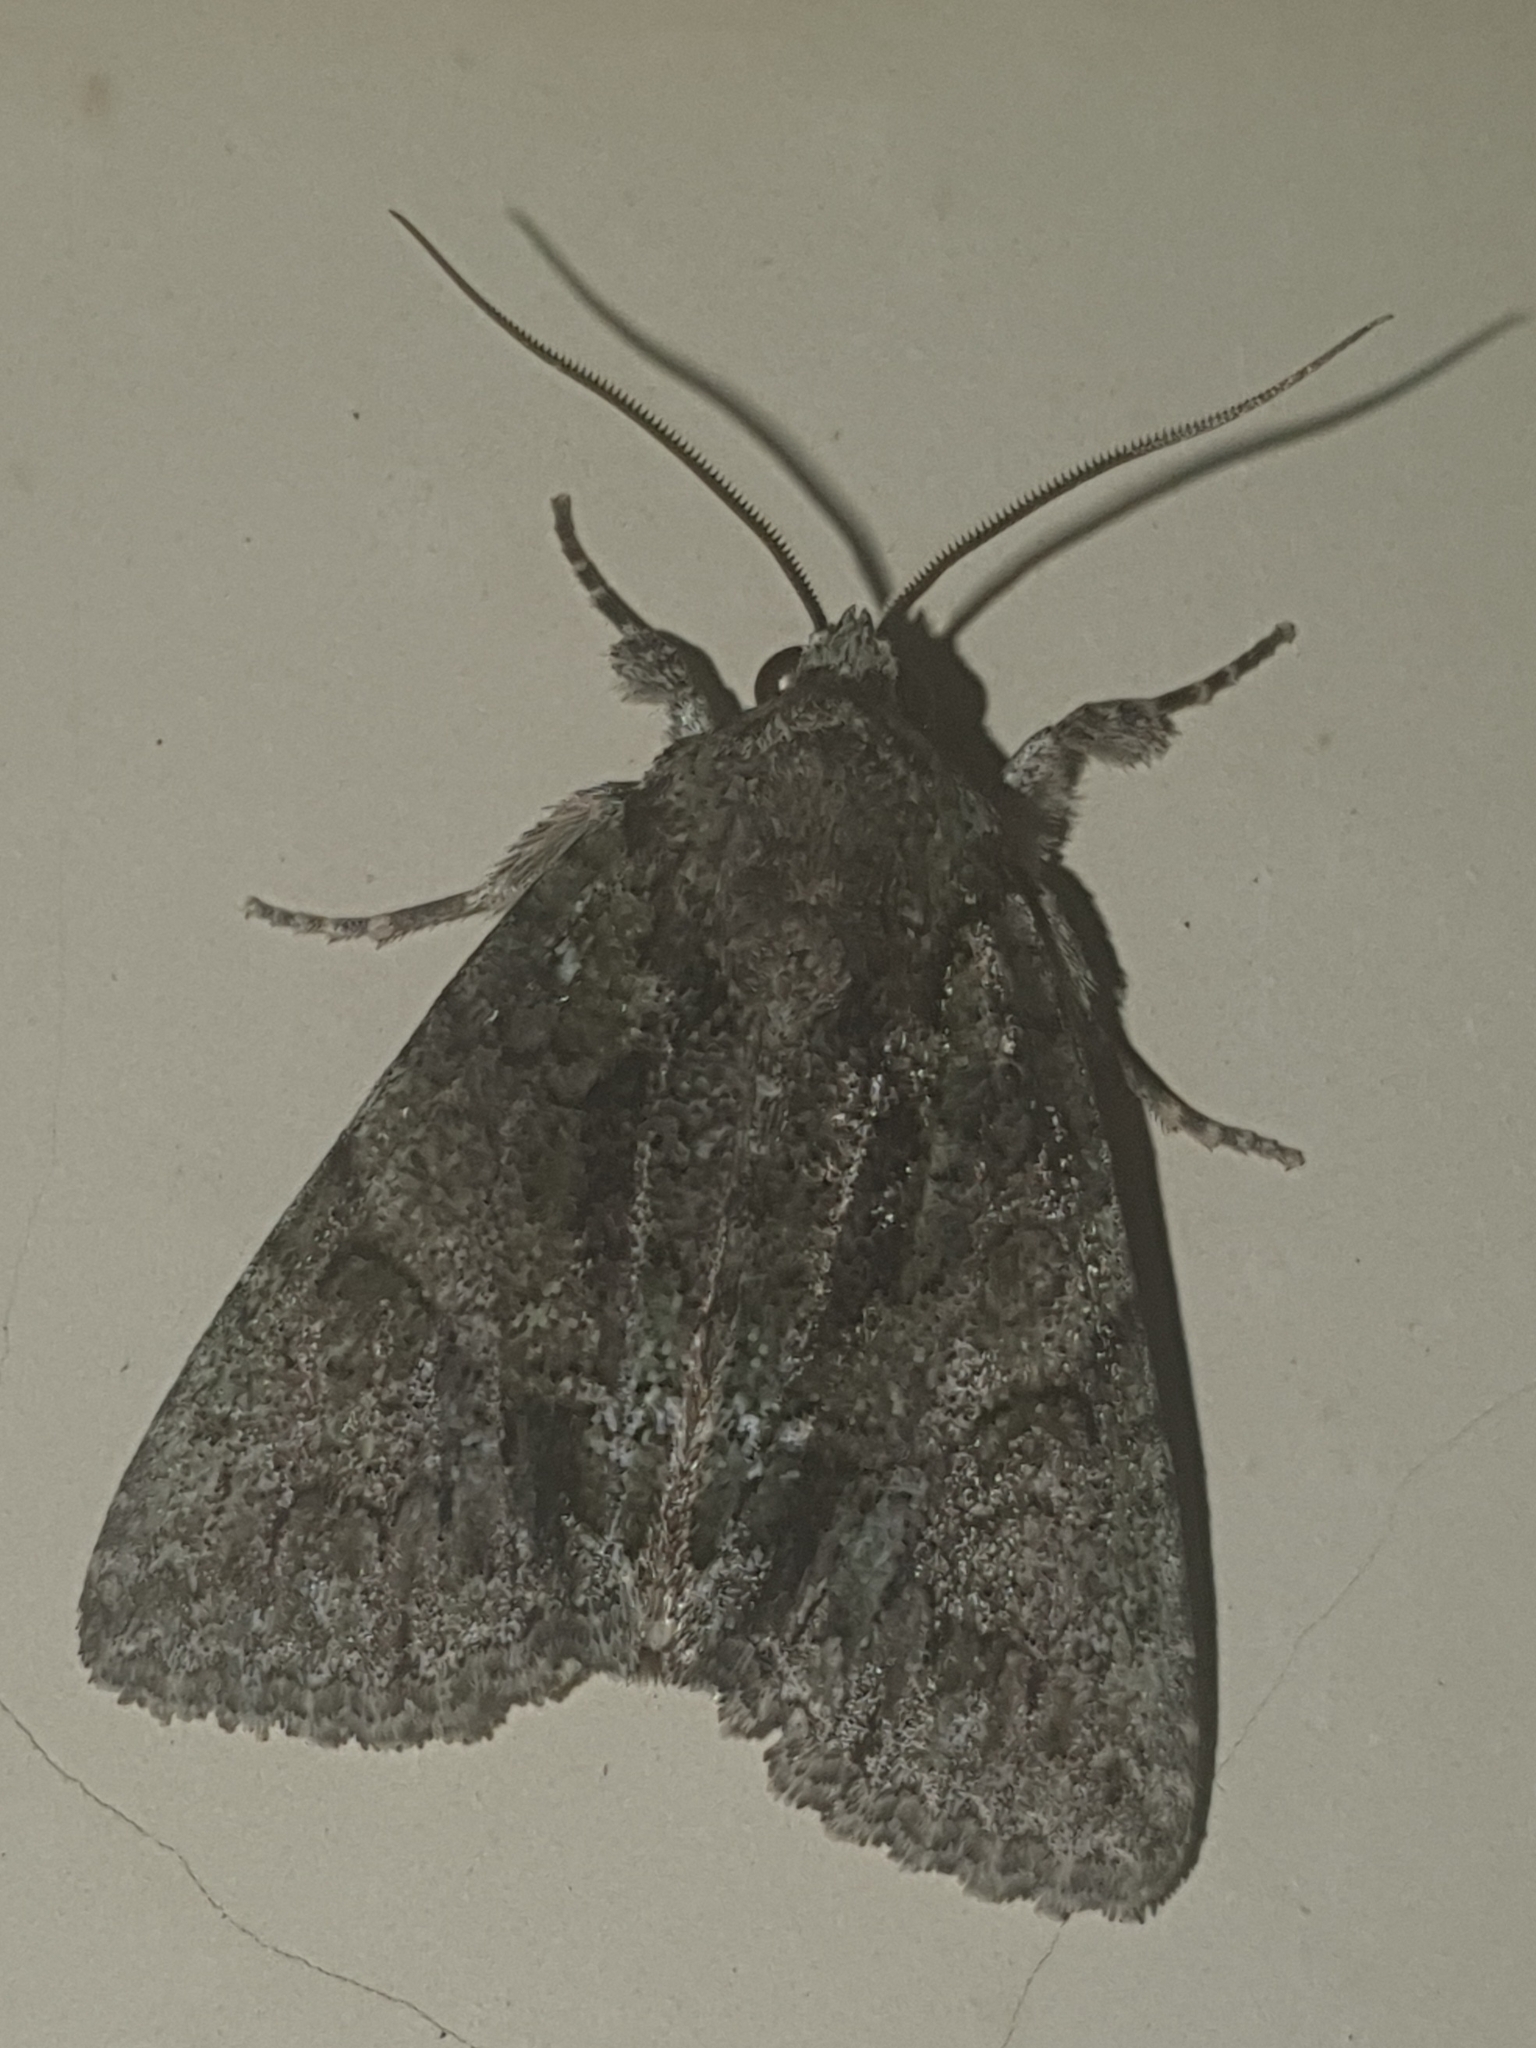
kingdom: Animalia
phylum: Arthropoda
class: Insecta
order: Lepidoptera
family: Noctuidae
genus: Polyphaenis
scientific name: Polyphaenis sericata
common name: Guernsey underwing
